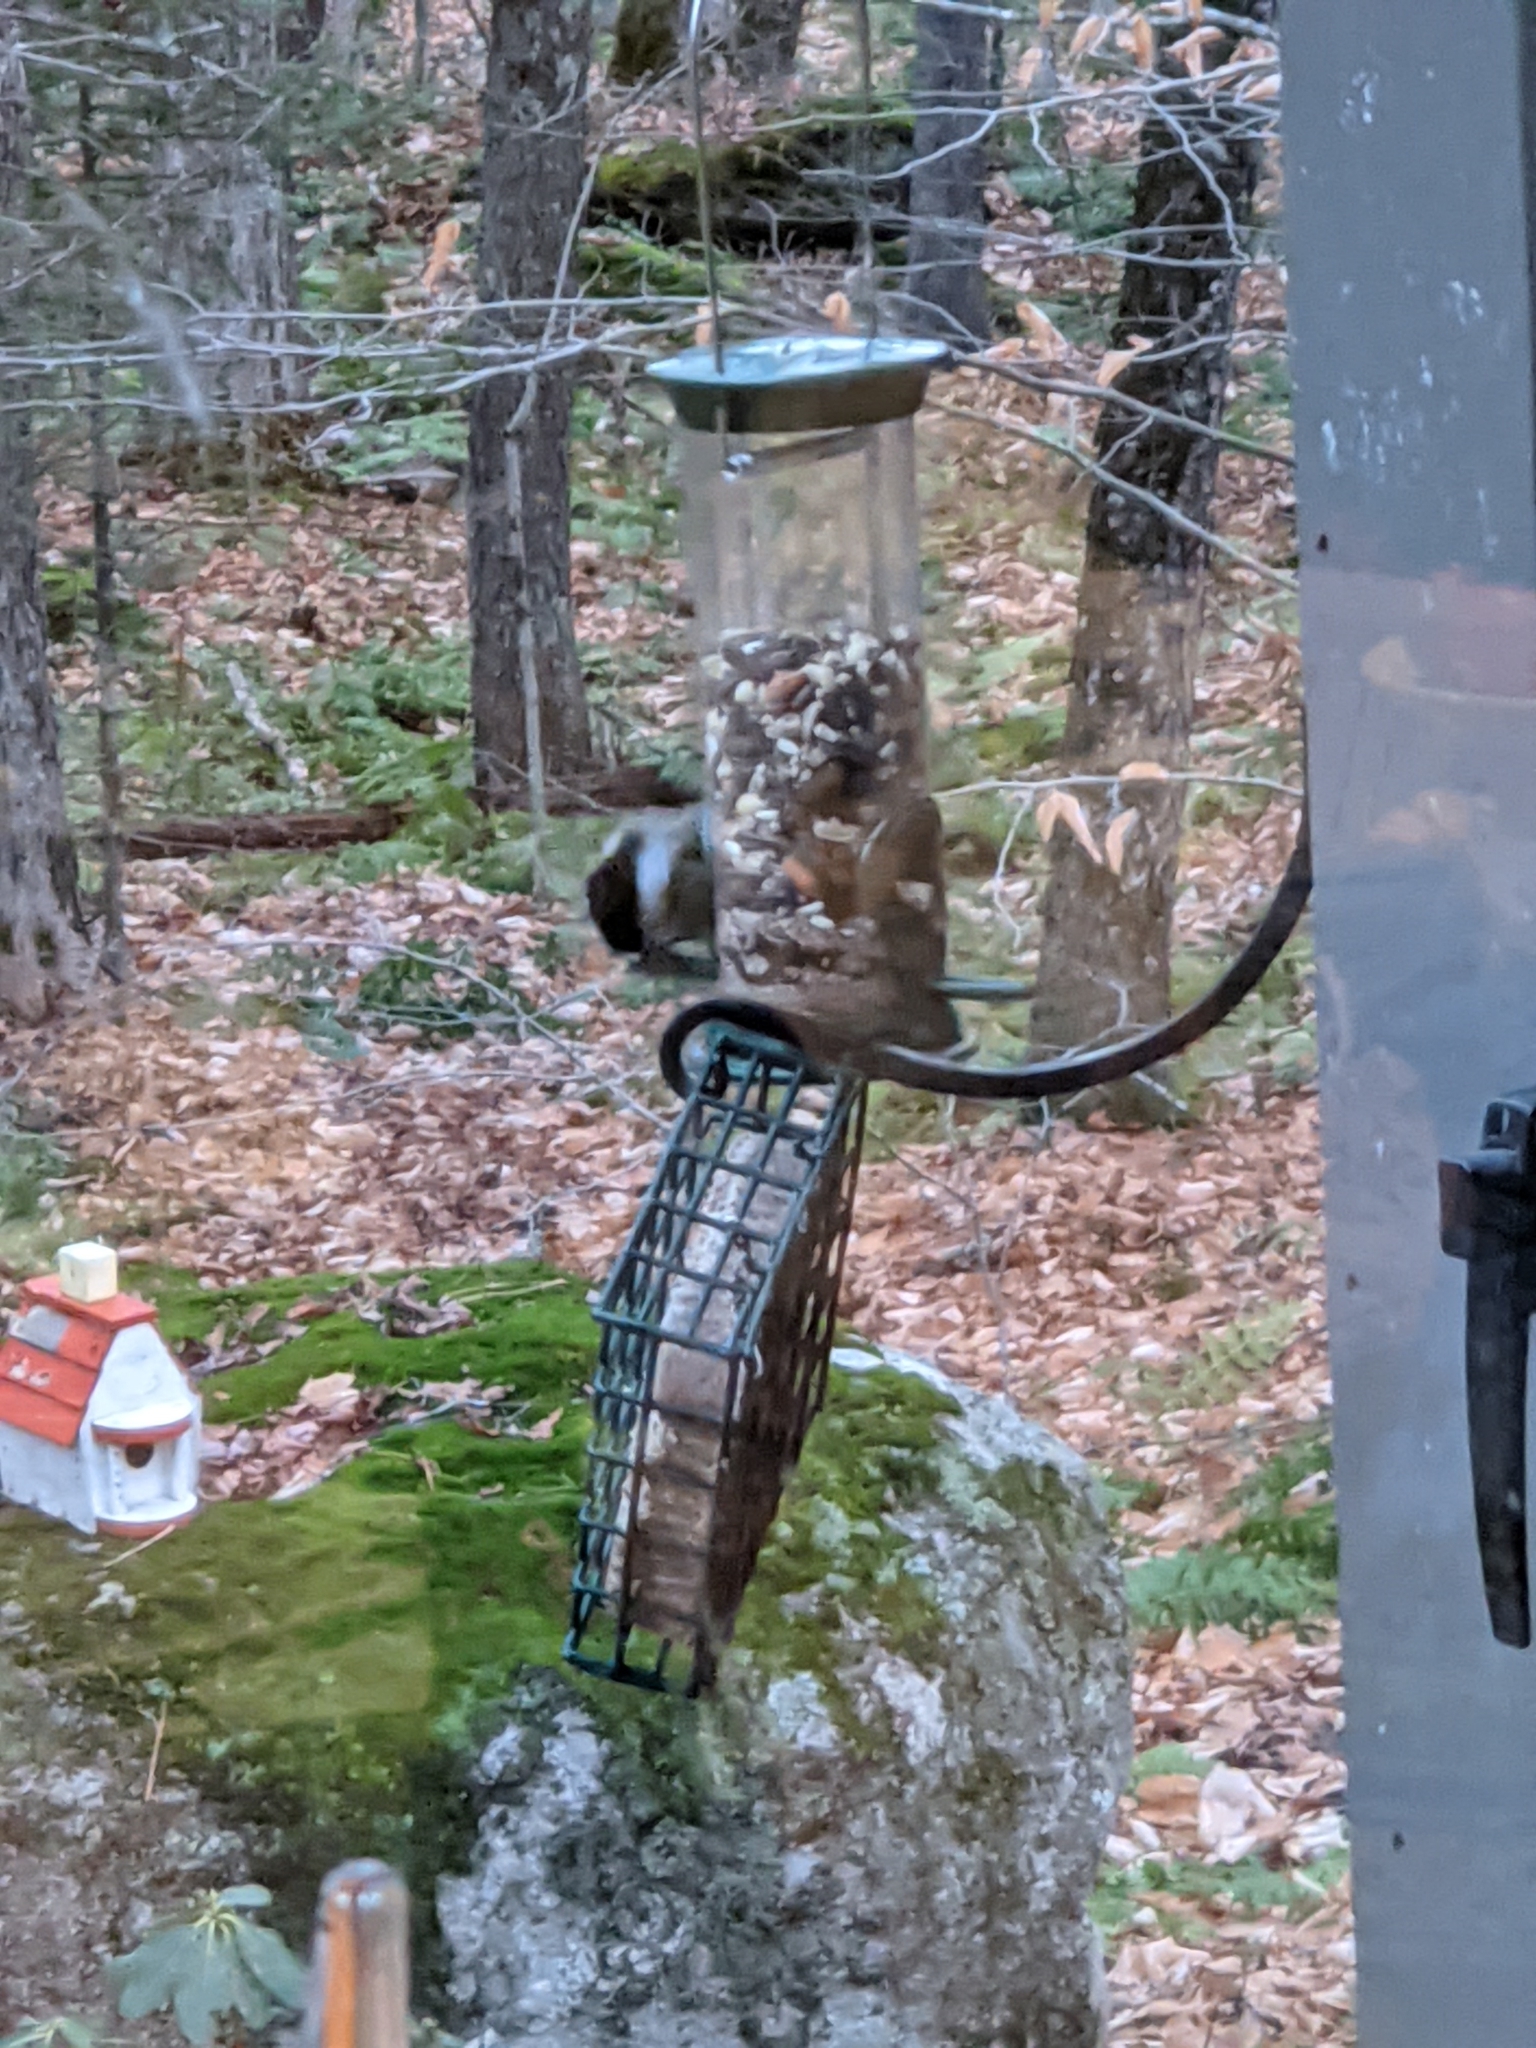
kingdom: Animalia
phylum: Chordata
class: Aves
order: Passeriformes
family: Paridae
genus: Poecile
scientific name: Poecile atricapillus
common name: Black-capped chickadee
